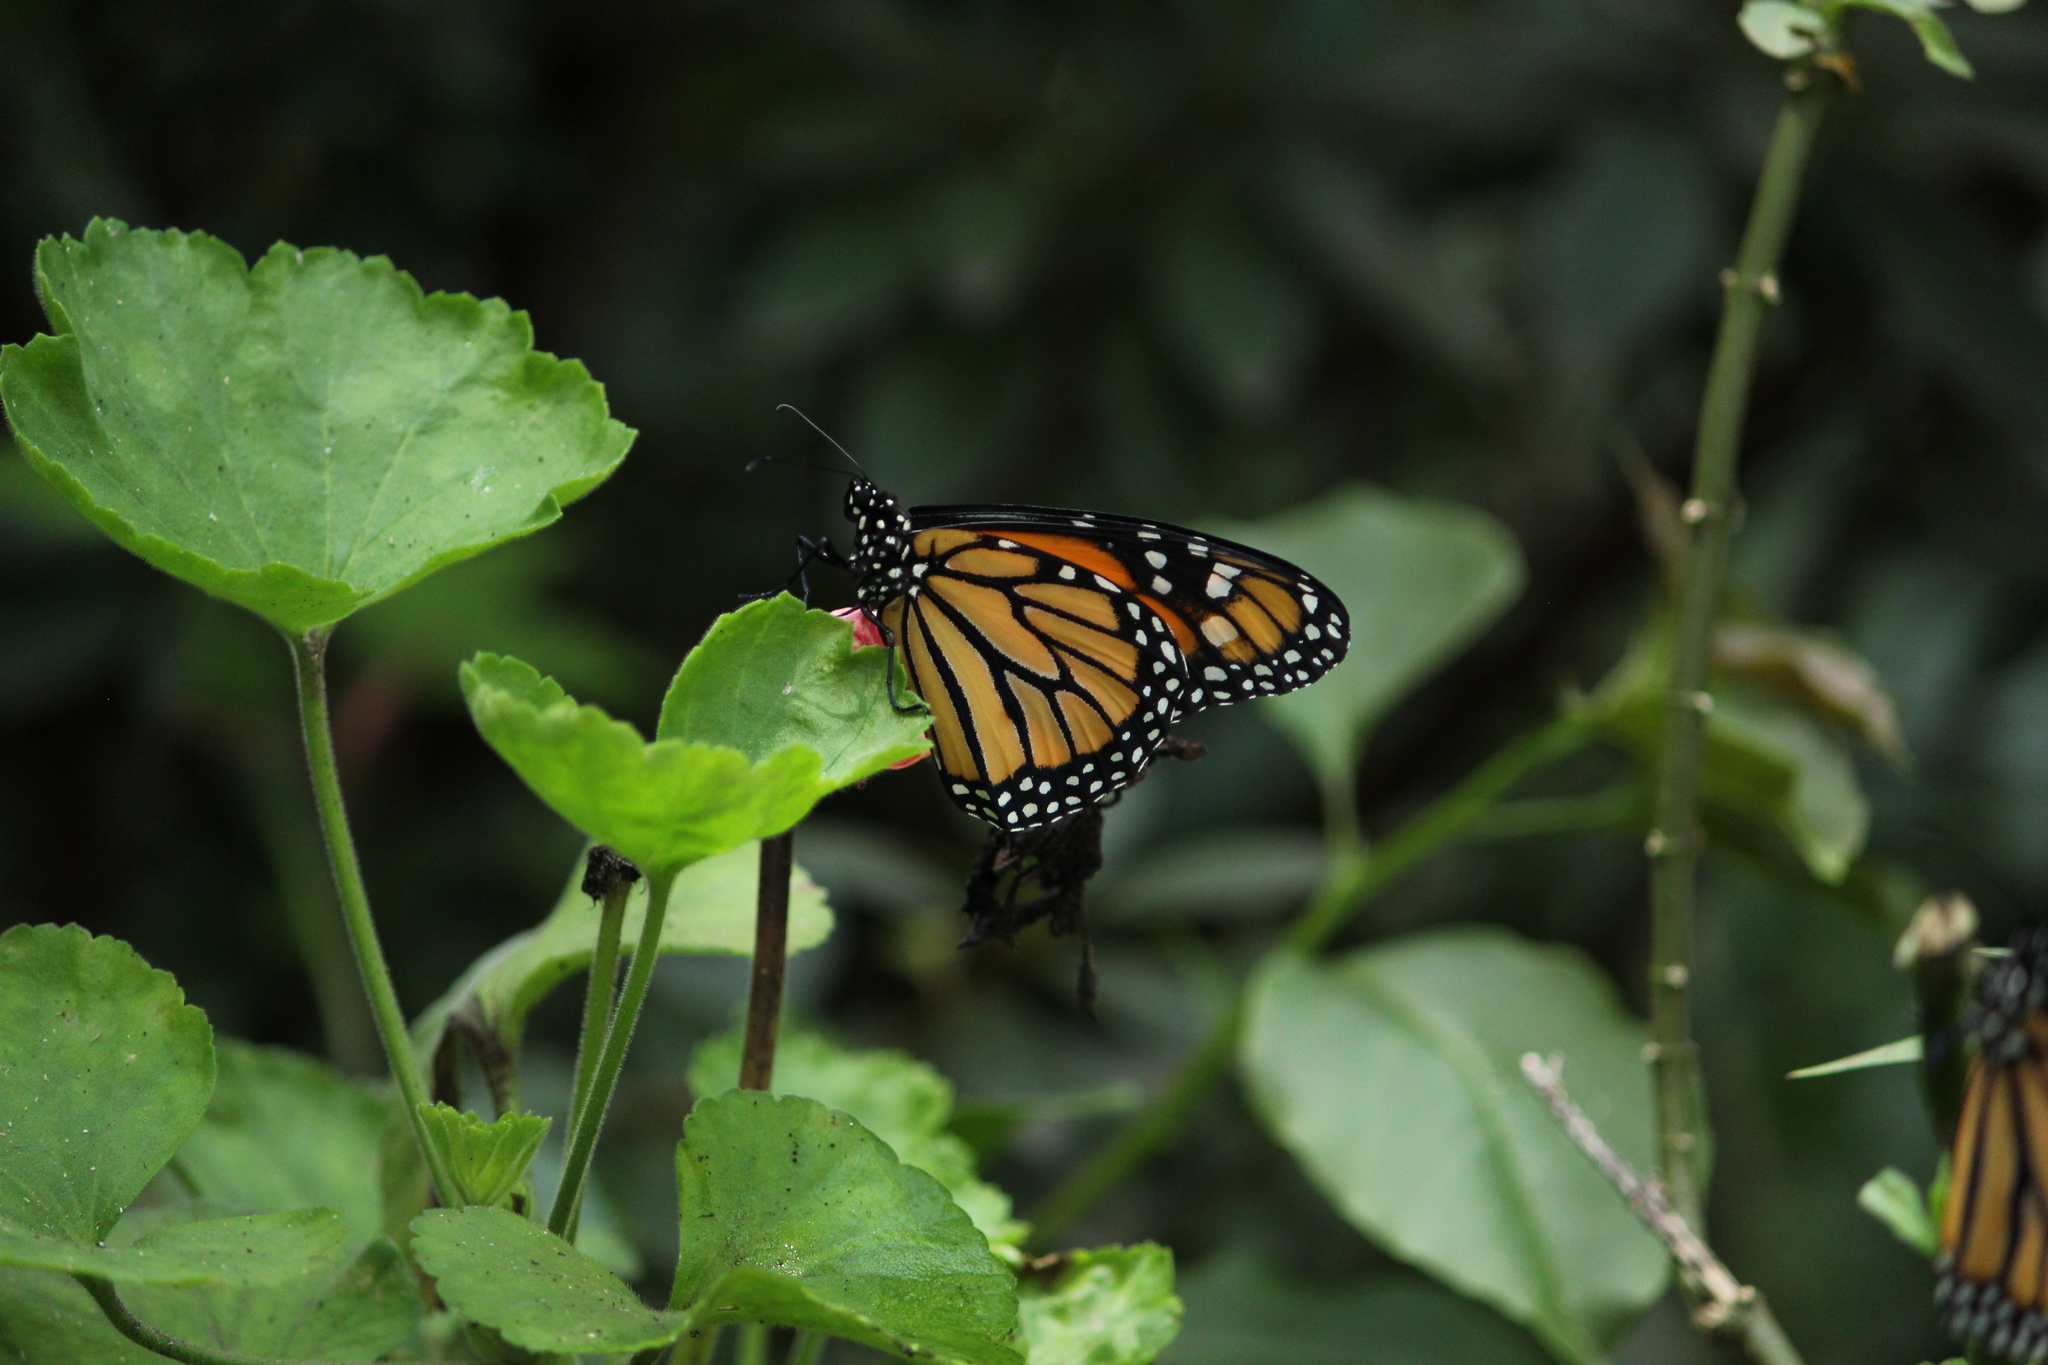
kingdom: Animalia
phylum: Arthropoda
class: Insecta
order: Lepidoptera
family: Nymphalidae
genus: Danaus
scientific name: Danaus plexippus
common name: Monarch
